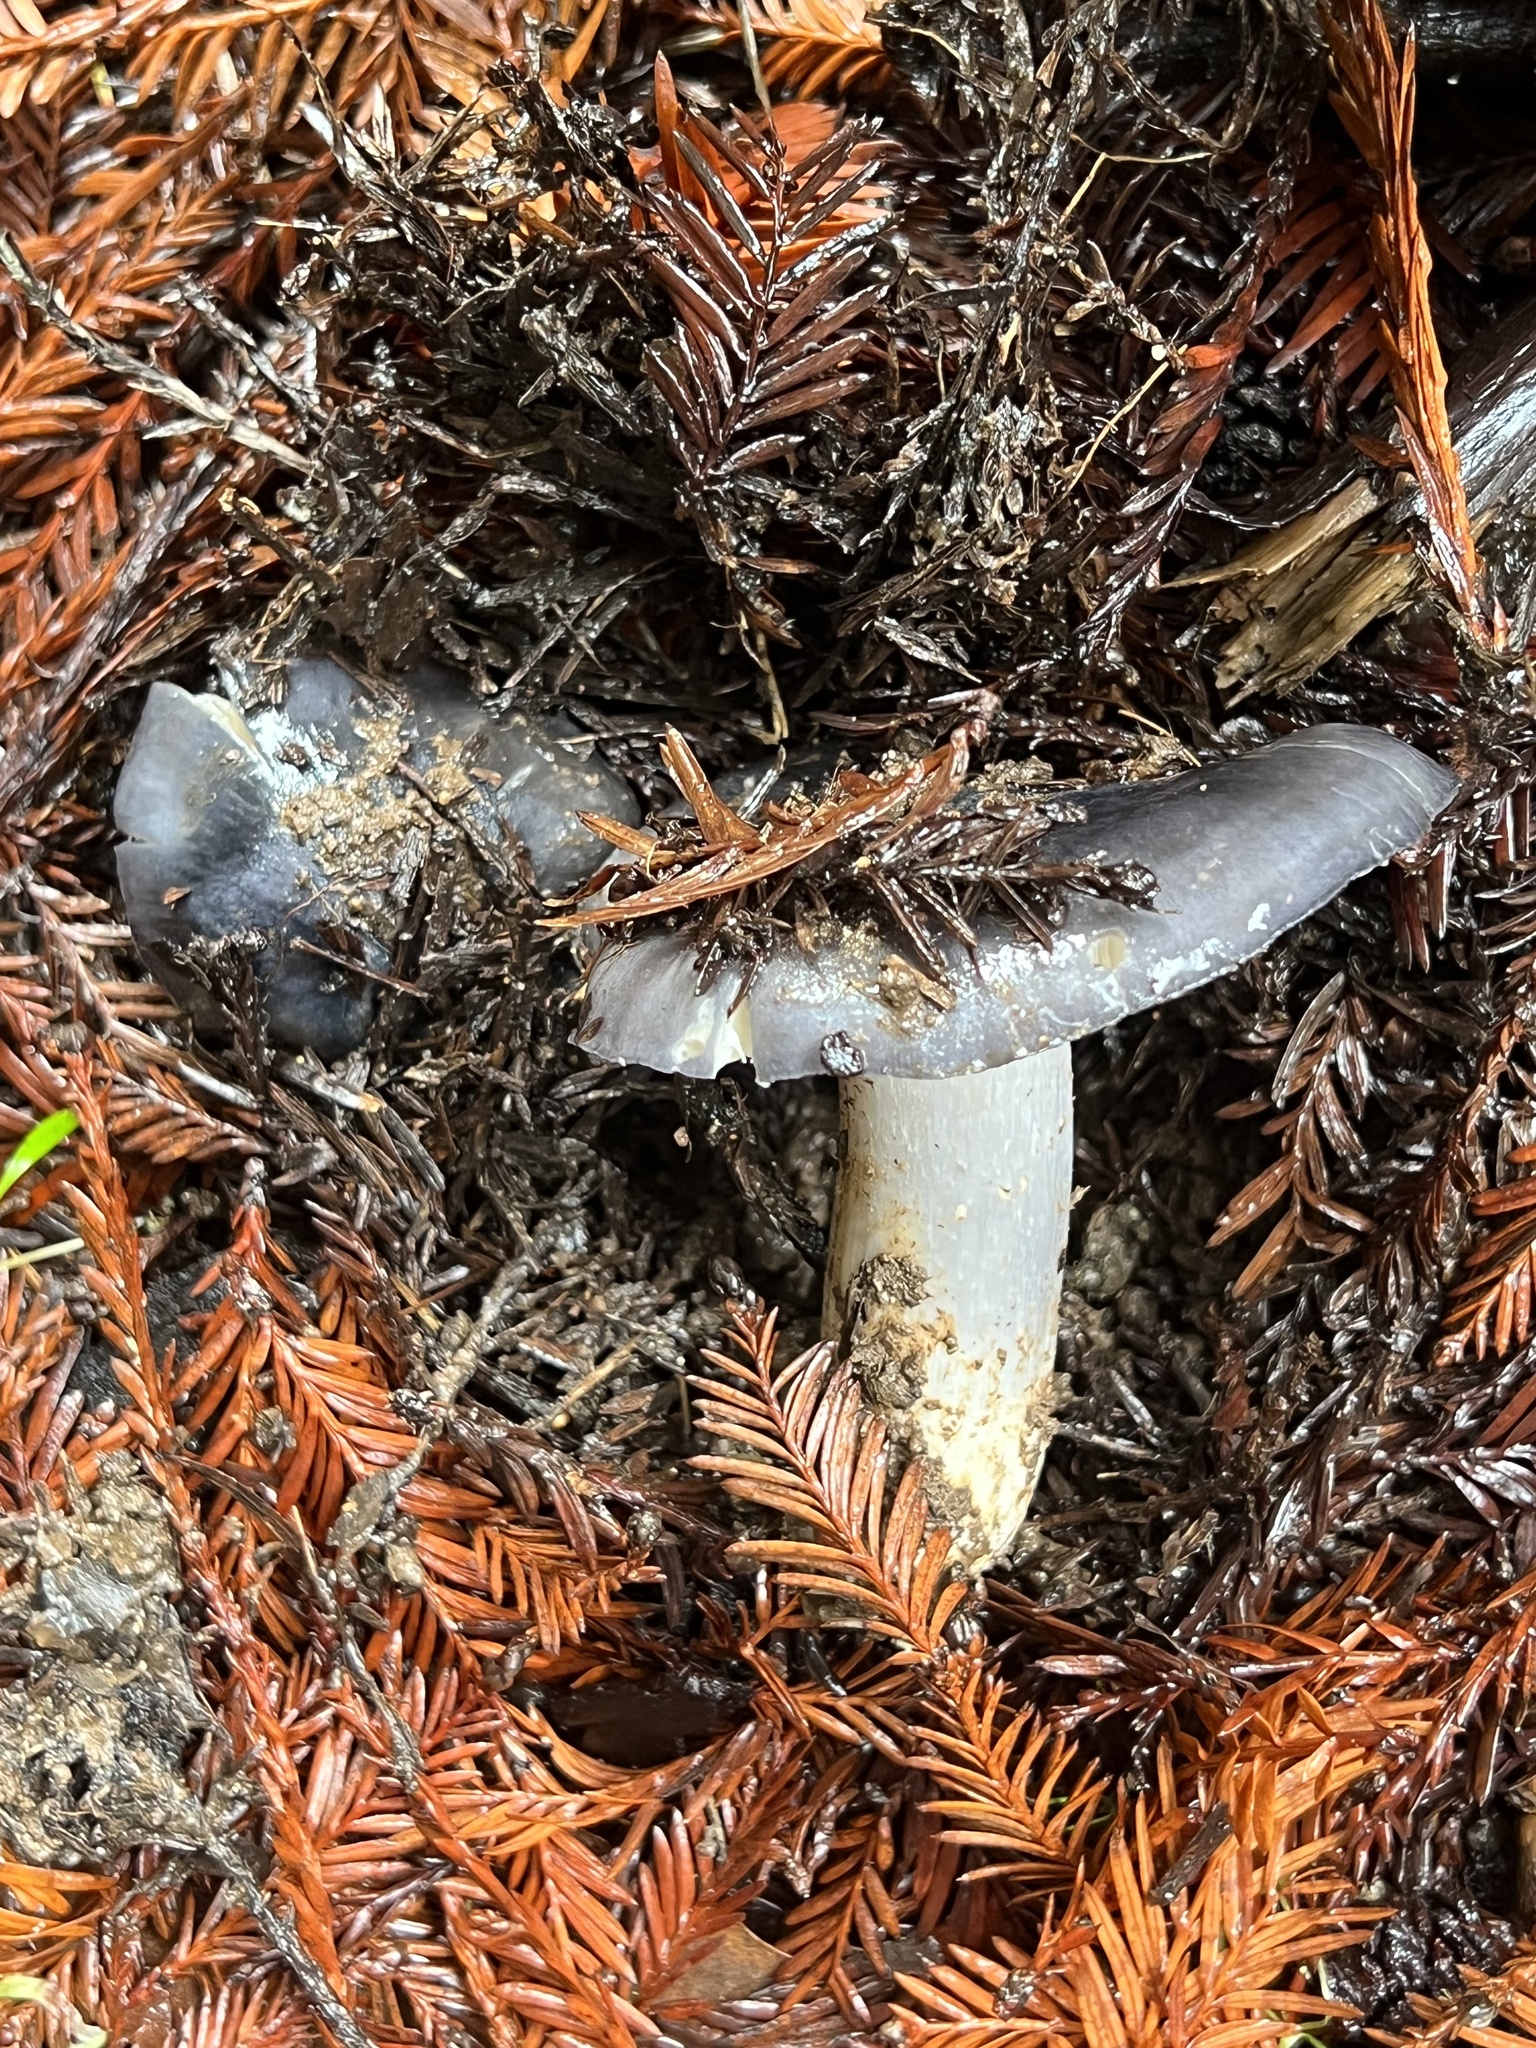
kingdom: Fungi
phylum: Basidiomycota
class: Agaricomycetes
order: Agaricales
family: Entolomataceae
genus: Entoloma
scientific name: Entoloma medianox
